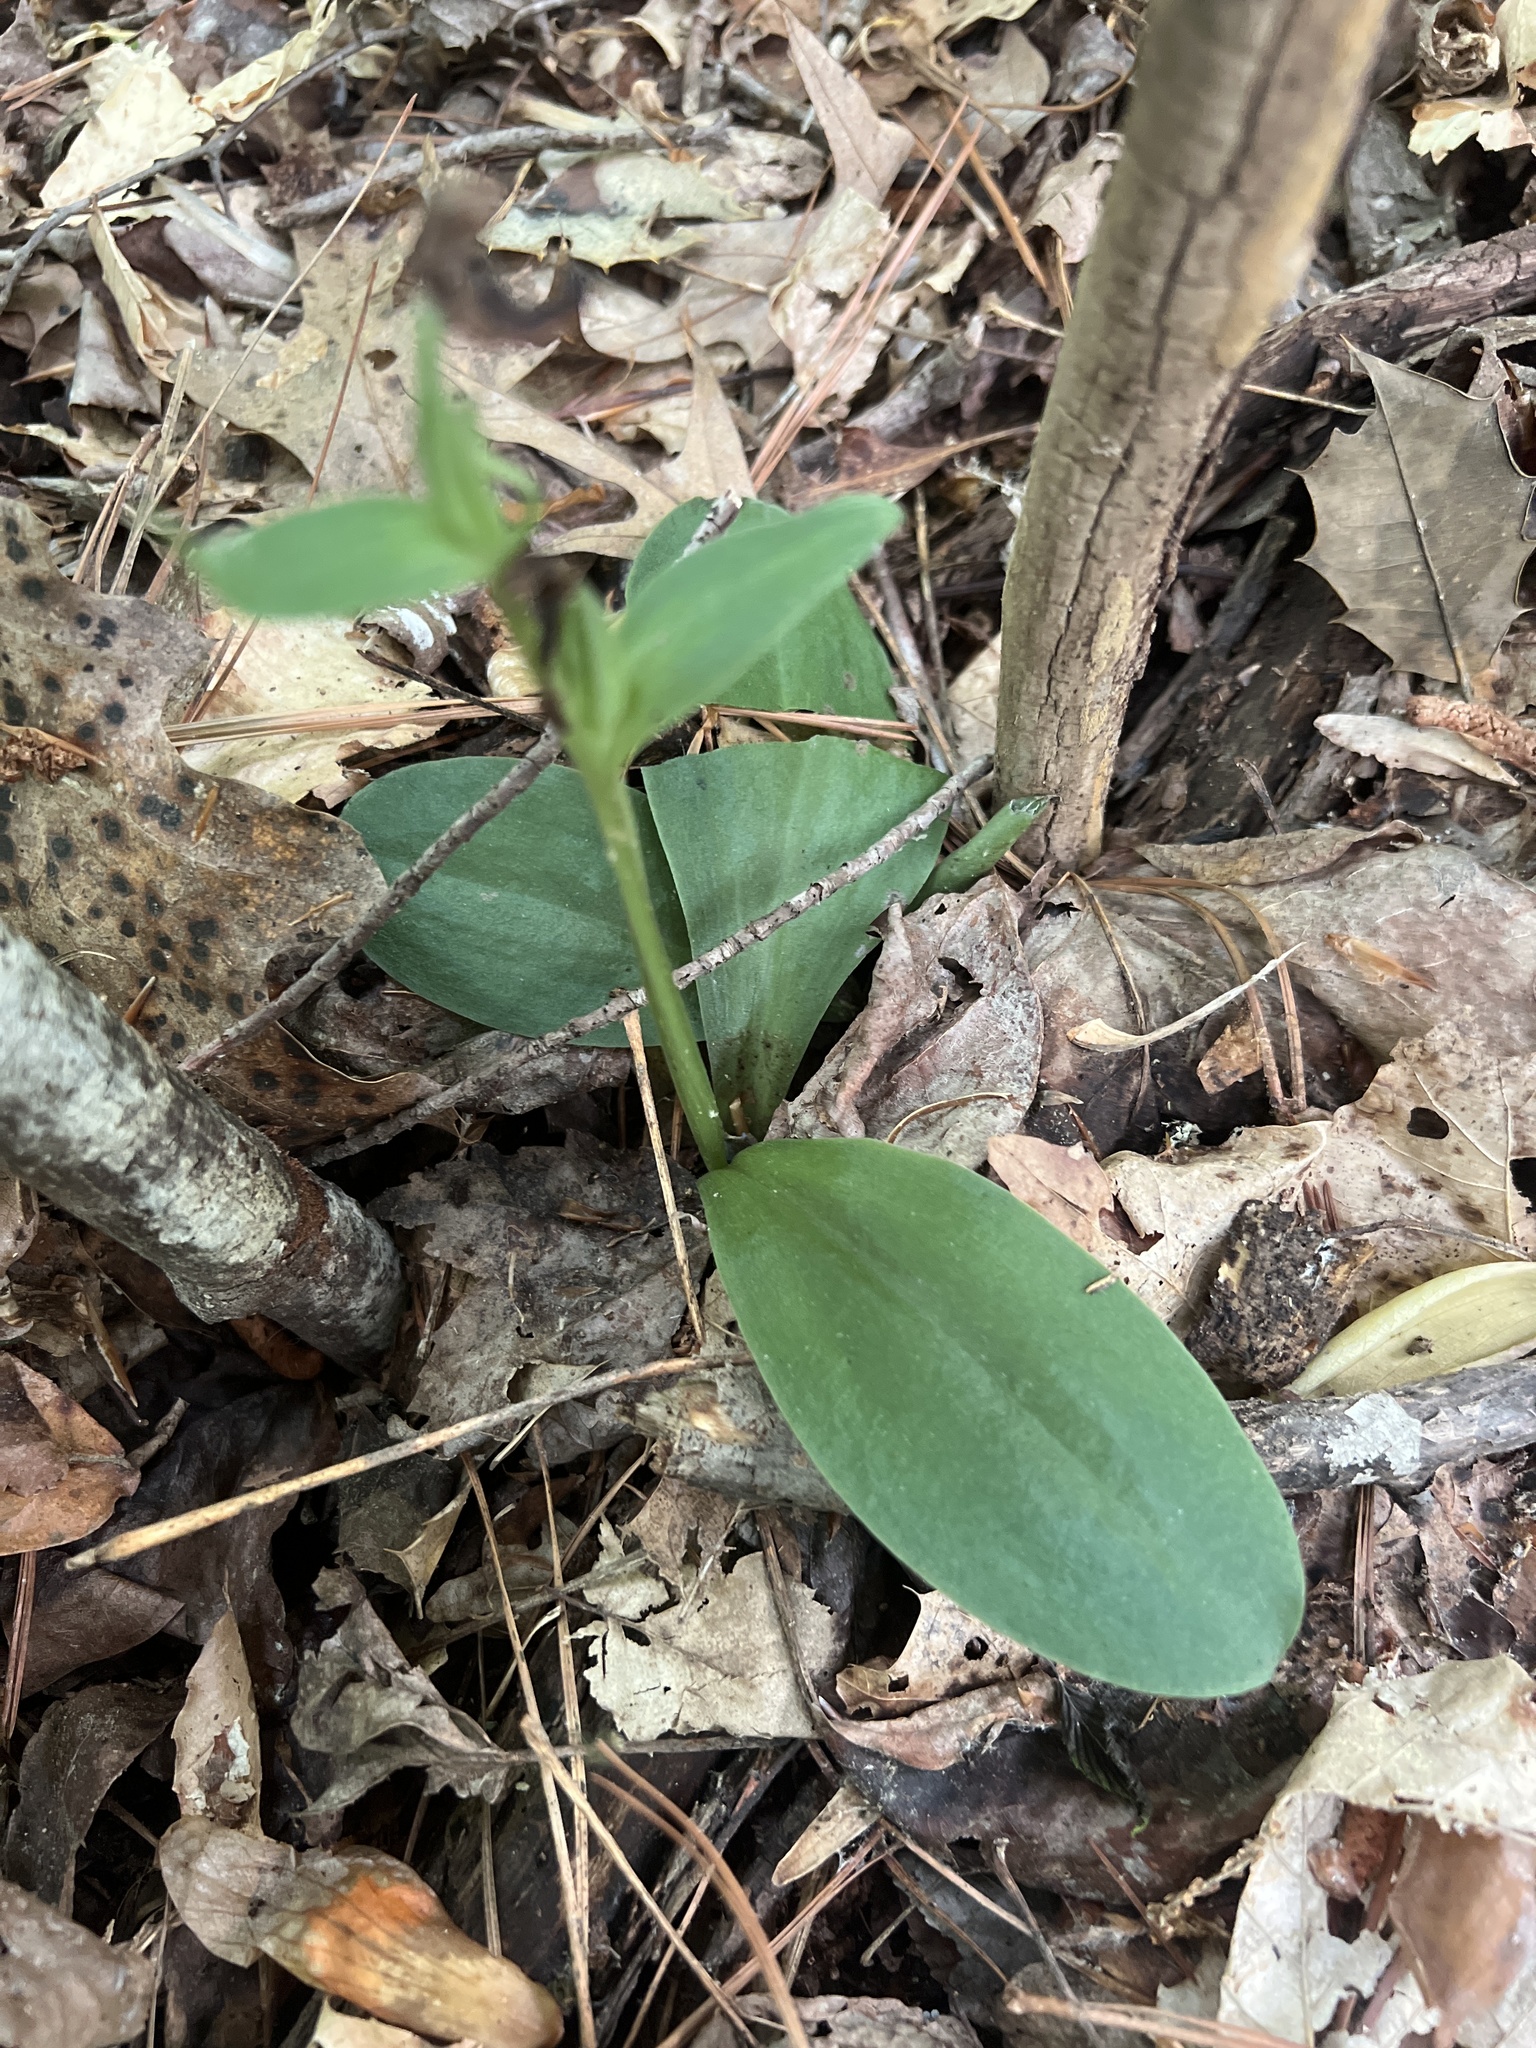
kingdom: Plantae
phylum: Tracheophyta
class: Liliopsida
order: Asparagales
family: Orchidaceae
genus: Galearis
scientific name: Galearis spectabilis
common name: Purple-hooded orchis
